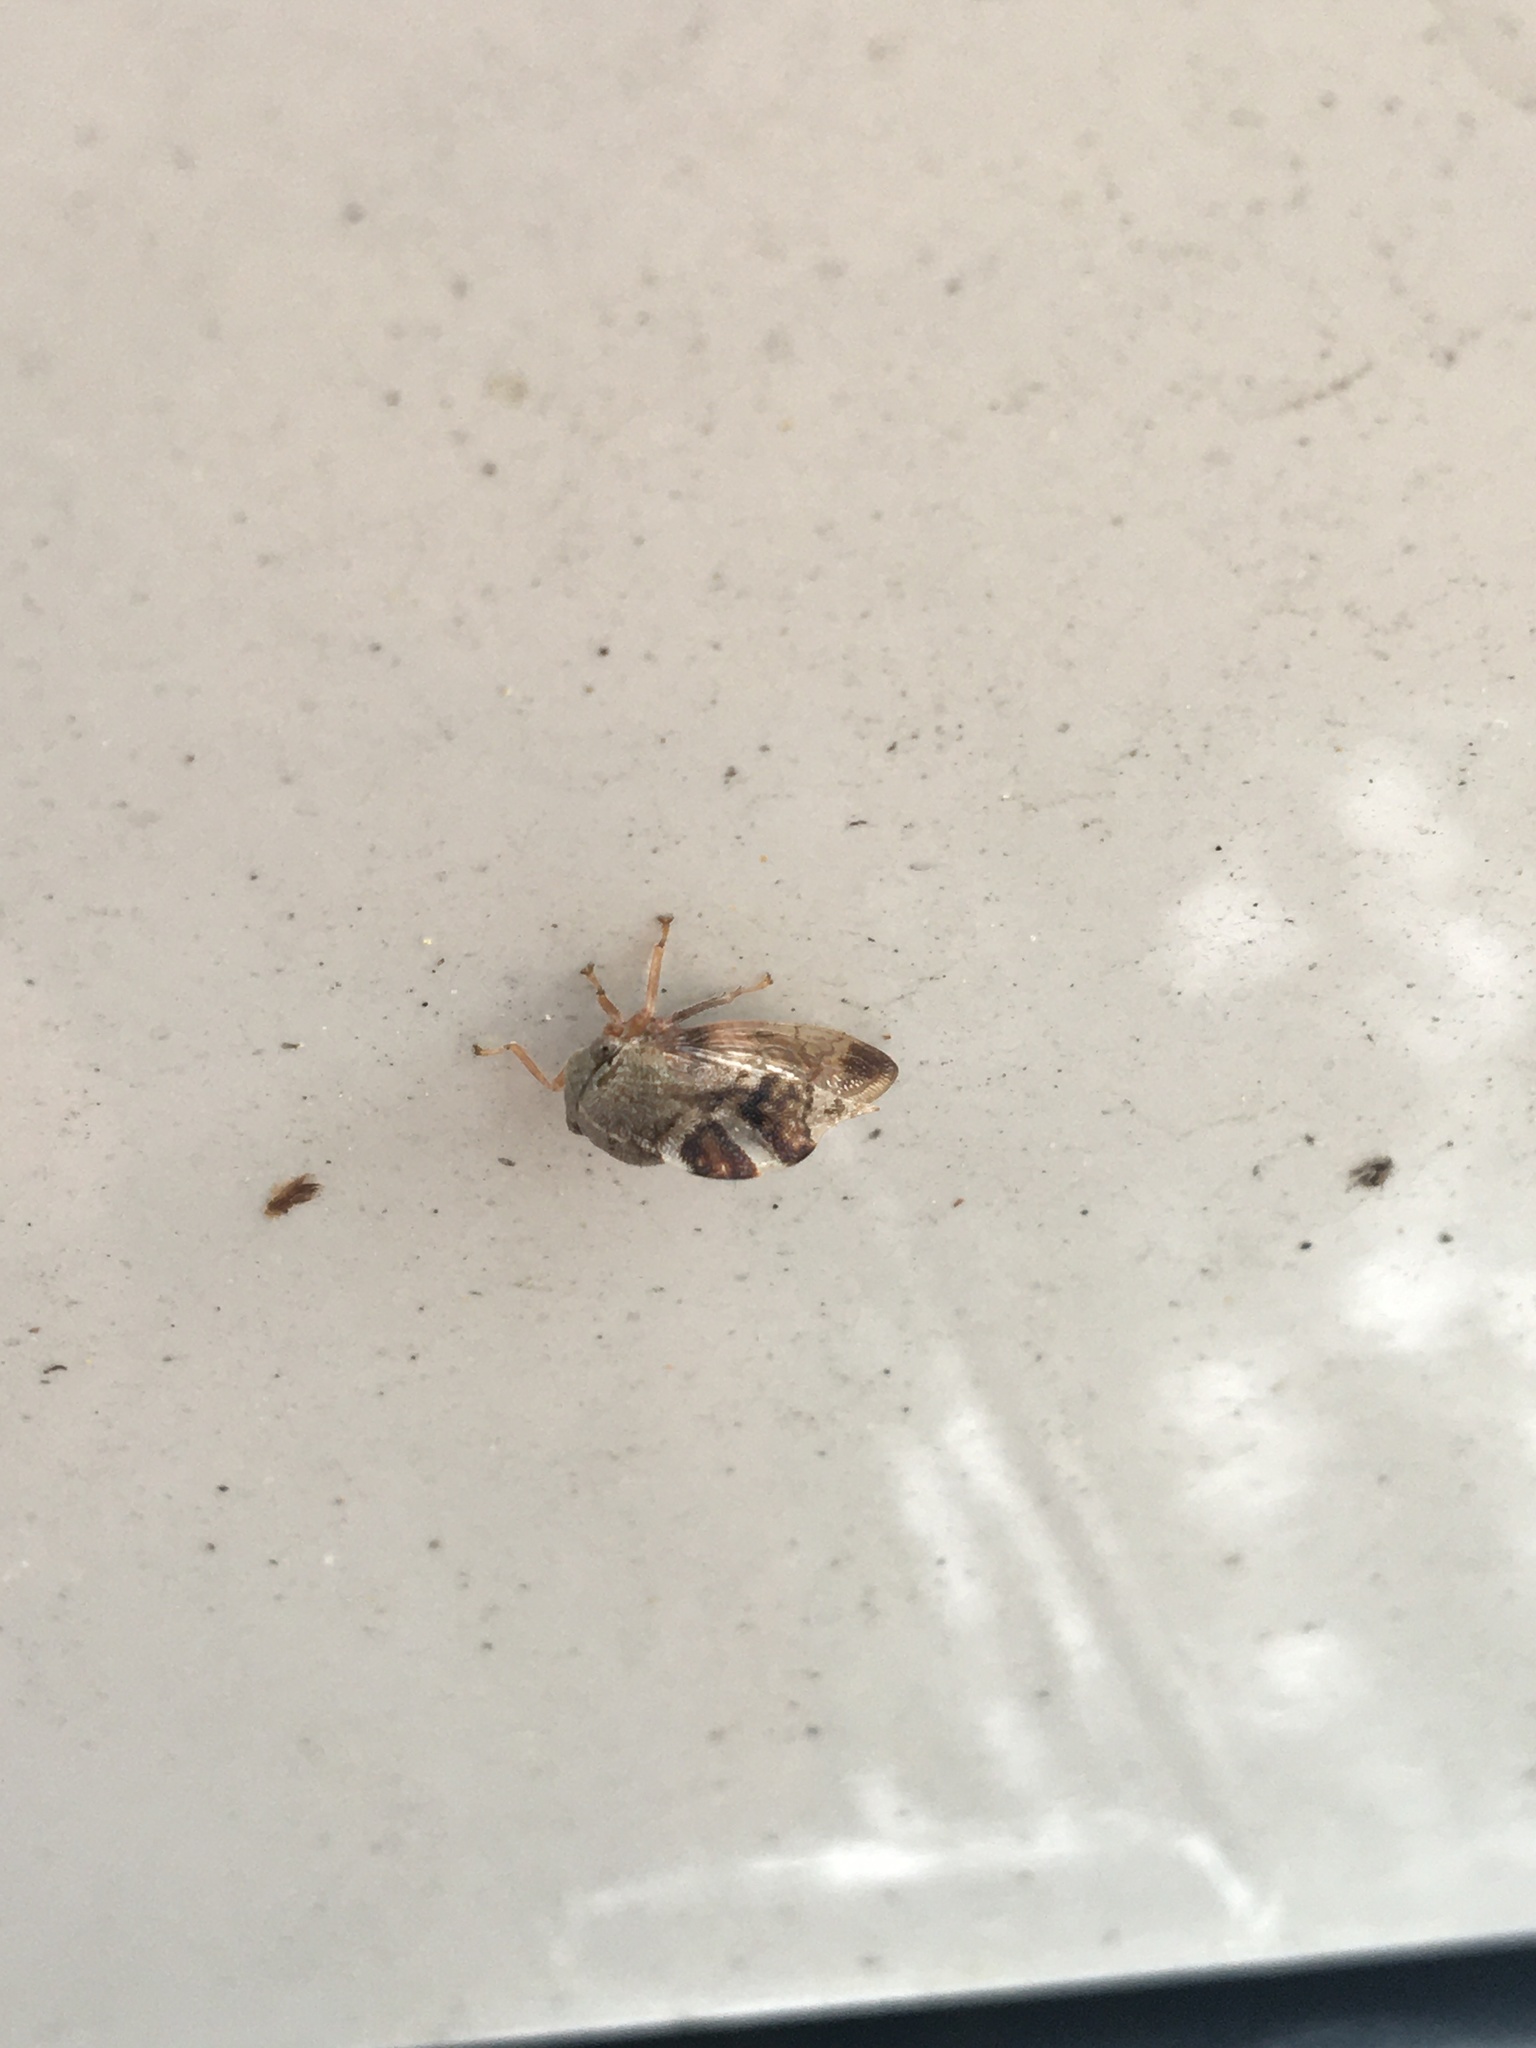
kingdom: Animalia
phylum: Arthropoda
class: Insecta
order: Hemiptera
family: Membracidae
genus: Cyrtolobus
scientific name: Cyrtolobus tuberosa
